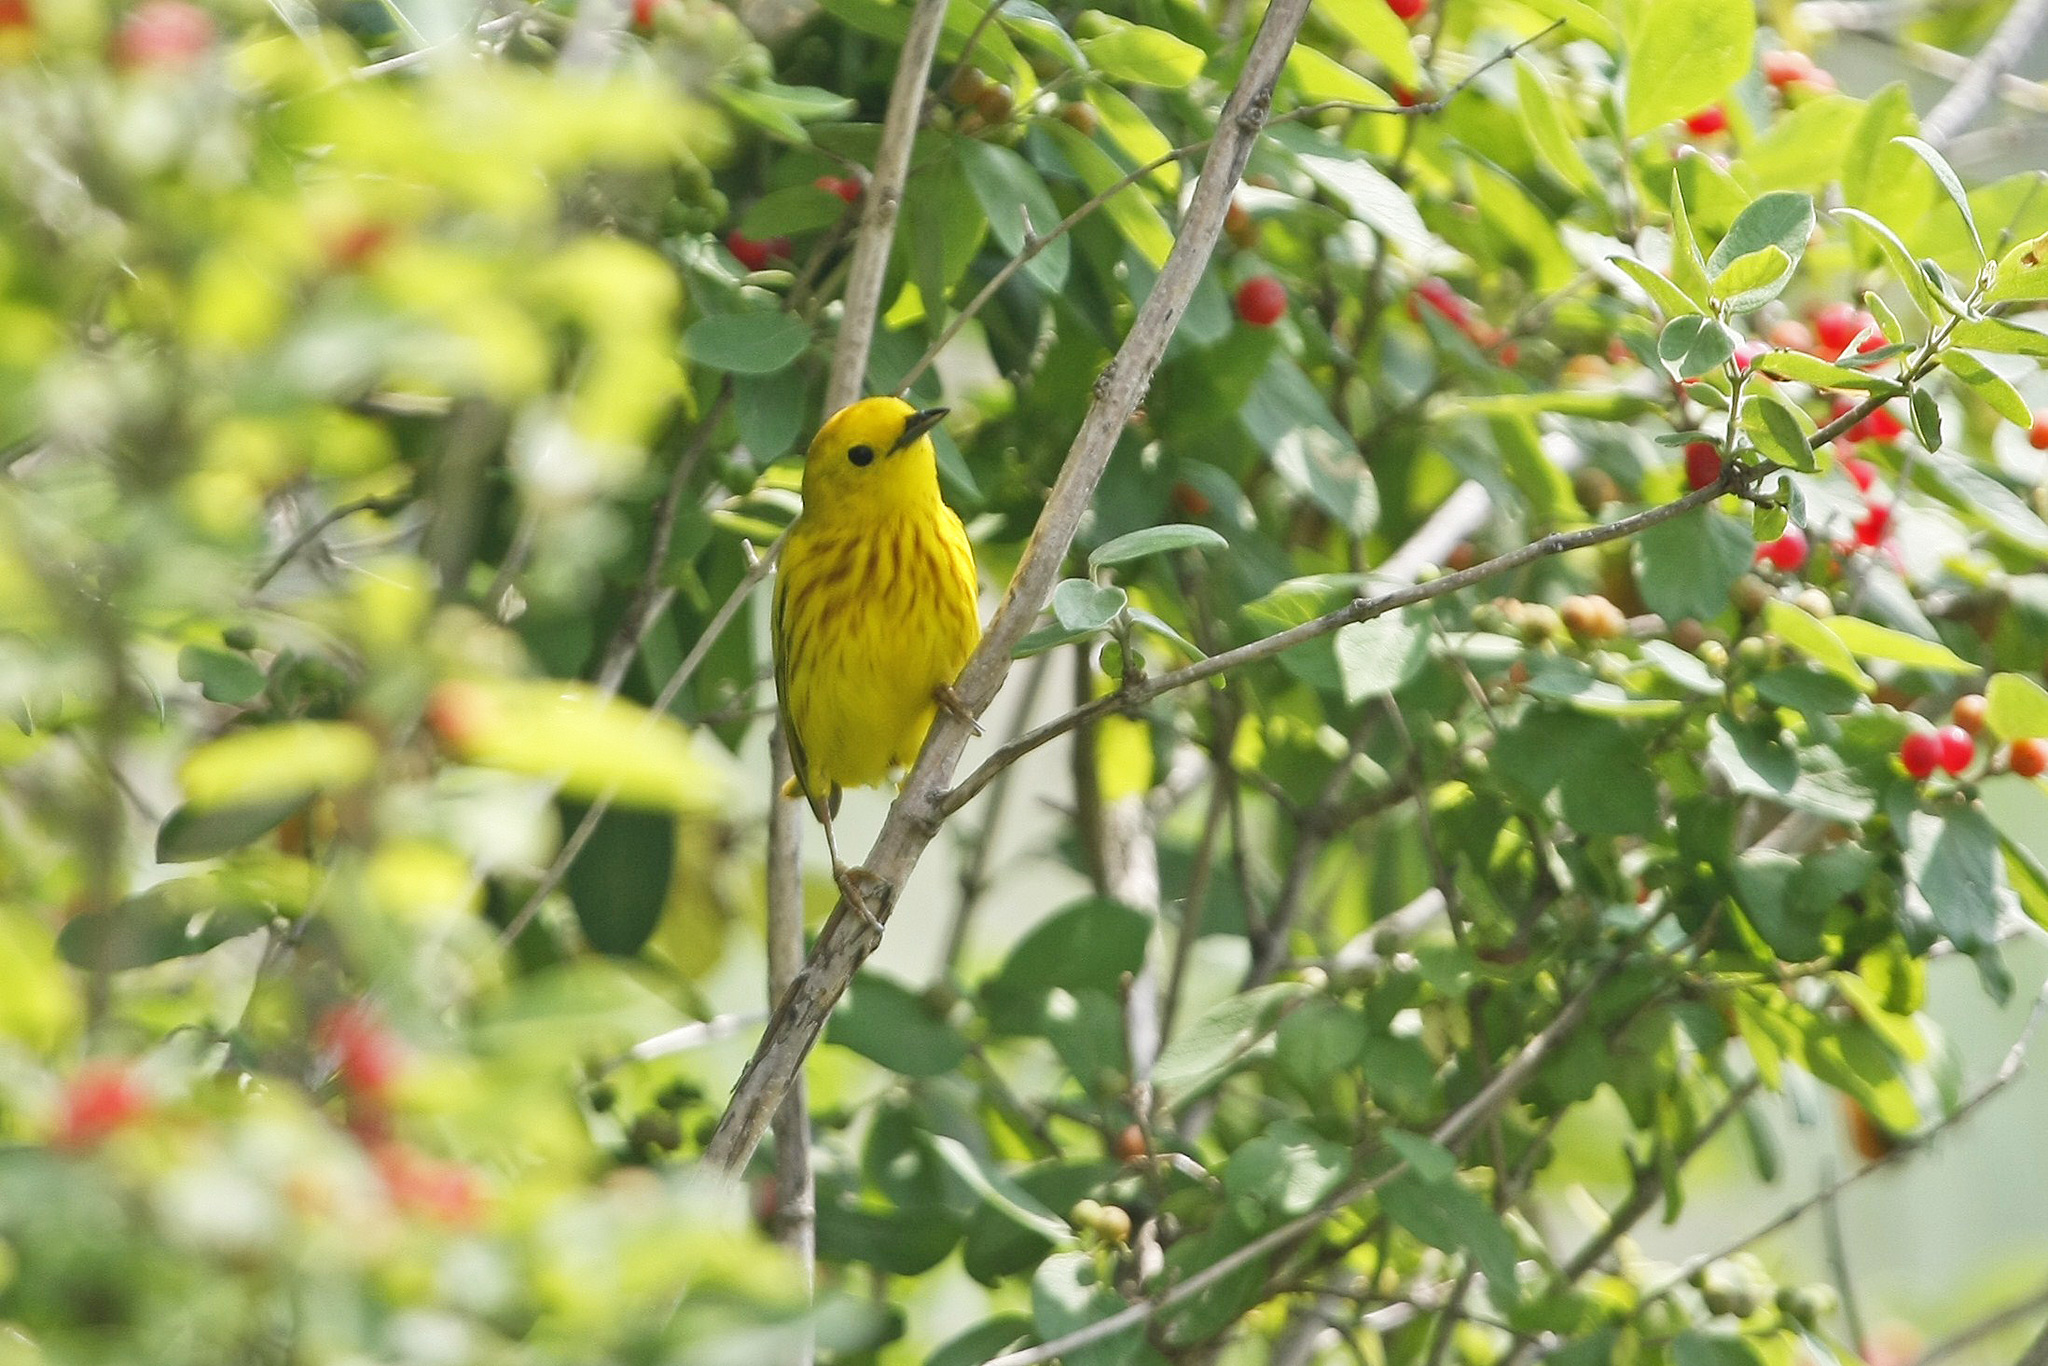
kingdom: Animalia
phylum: Chordata
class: Aves
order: Passeriformes
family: Parulidae
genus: Setophaga
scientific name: Setophaga petechia
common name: Yellow warbler
